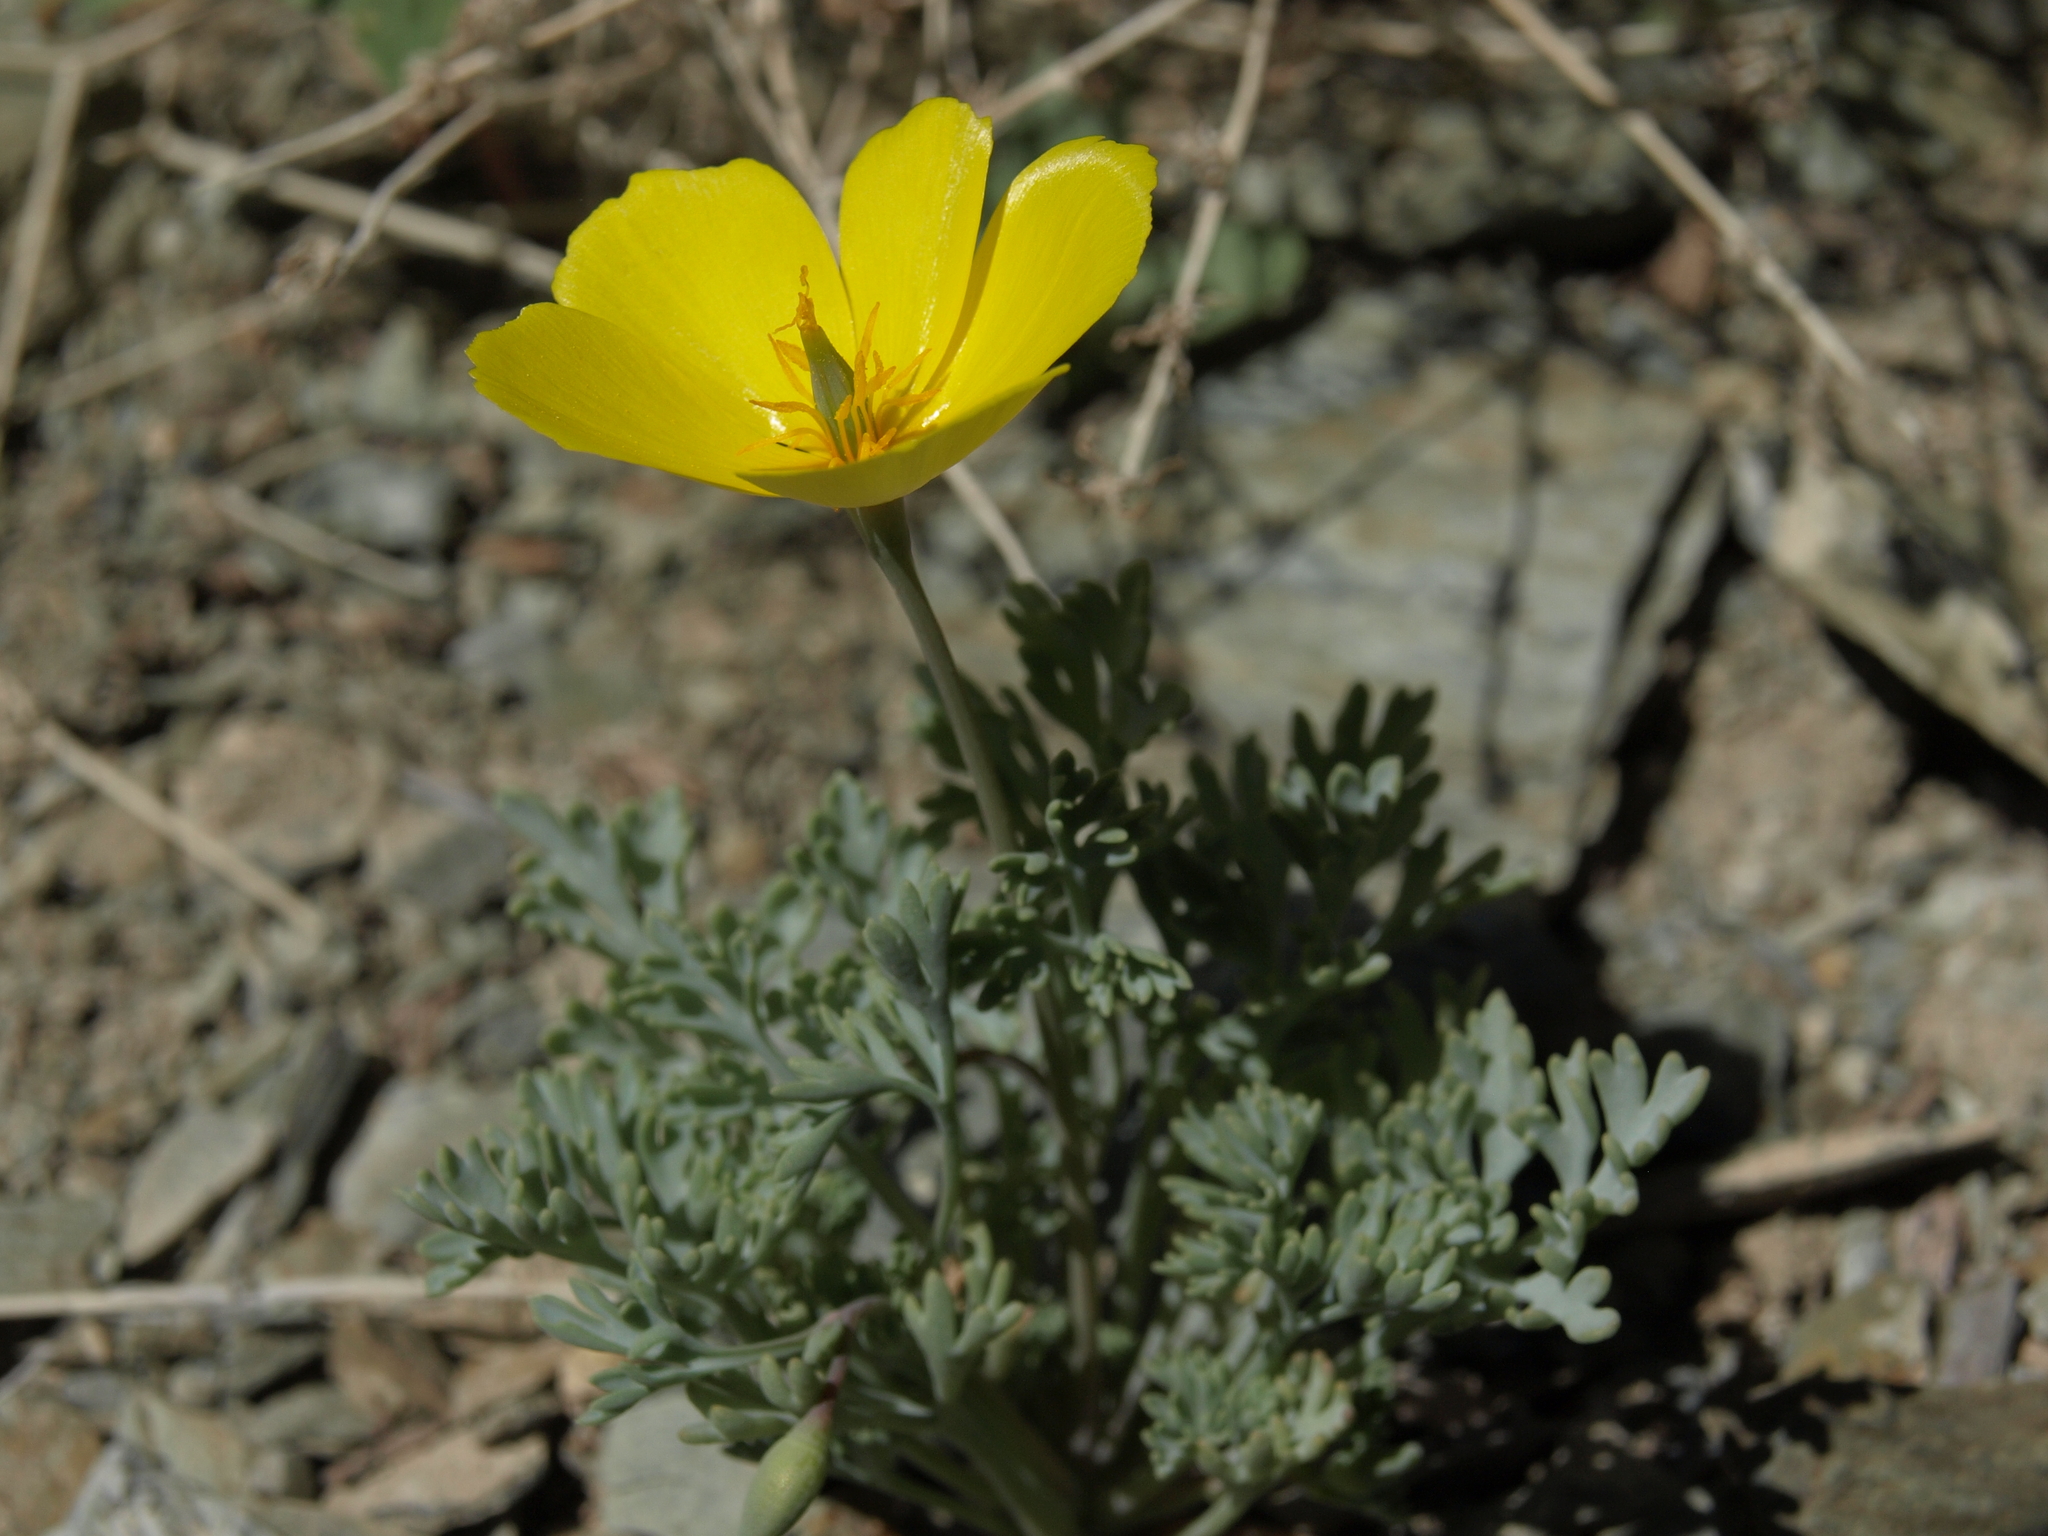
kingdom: Plantae
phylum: Tracheophyta
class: Magnoliopsida
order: Ranunculales
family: Papaveraceae
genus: Eschscholzia
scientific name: Eschscholzia minutiflora
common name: Small-flower california-poppy
